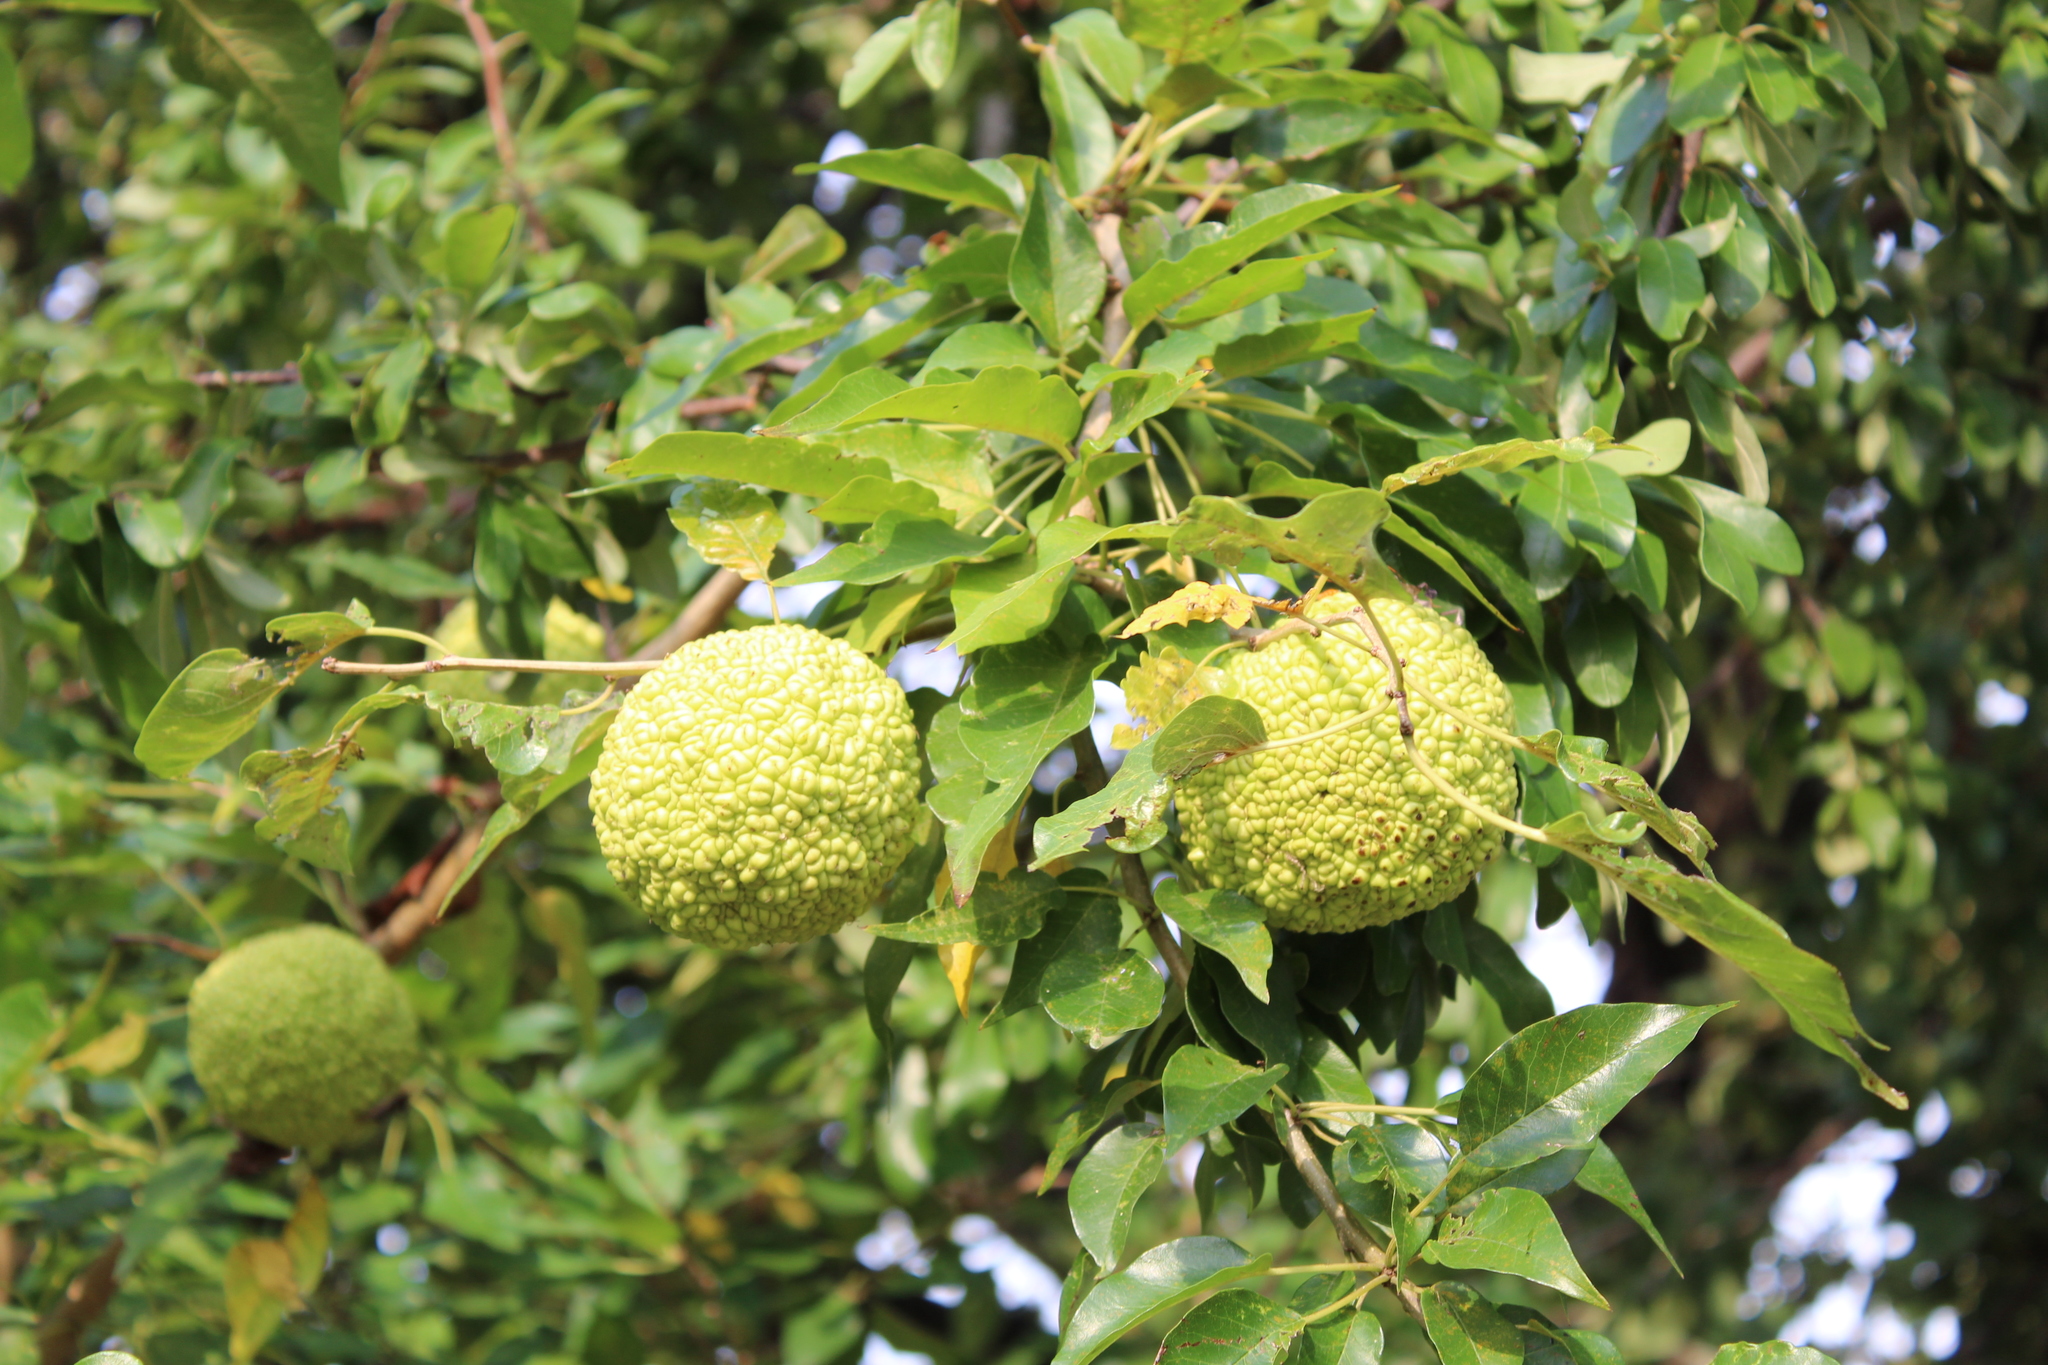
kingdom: Plantae
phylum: Tracheophyta
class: Magnoliopsida
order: Rosales
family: Moraceae
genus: Maclura
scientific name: Maclura pomifera
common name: Osage-orange
